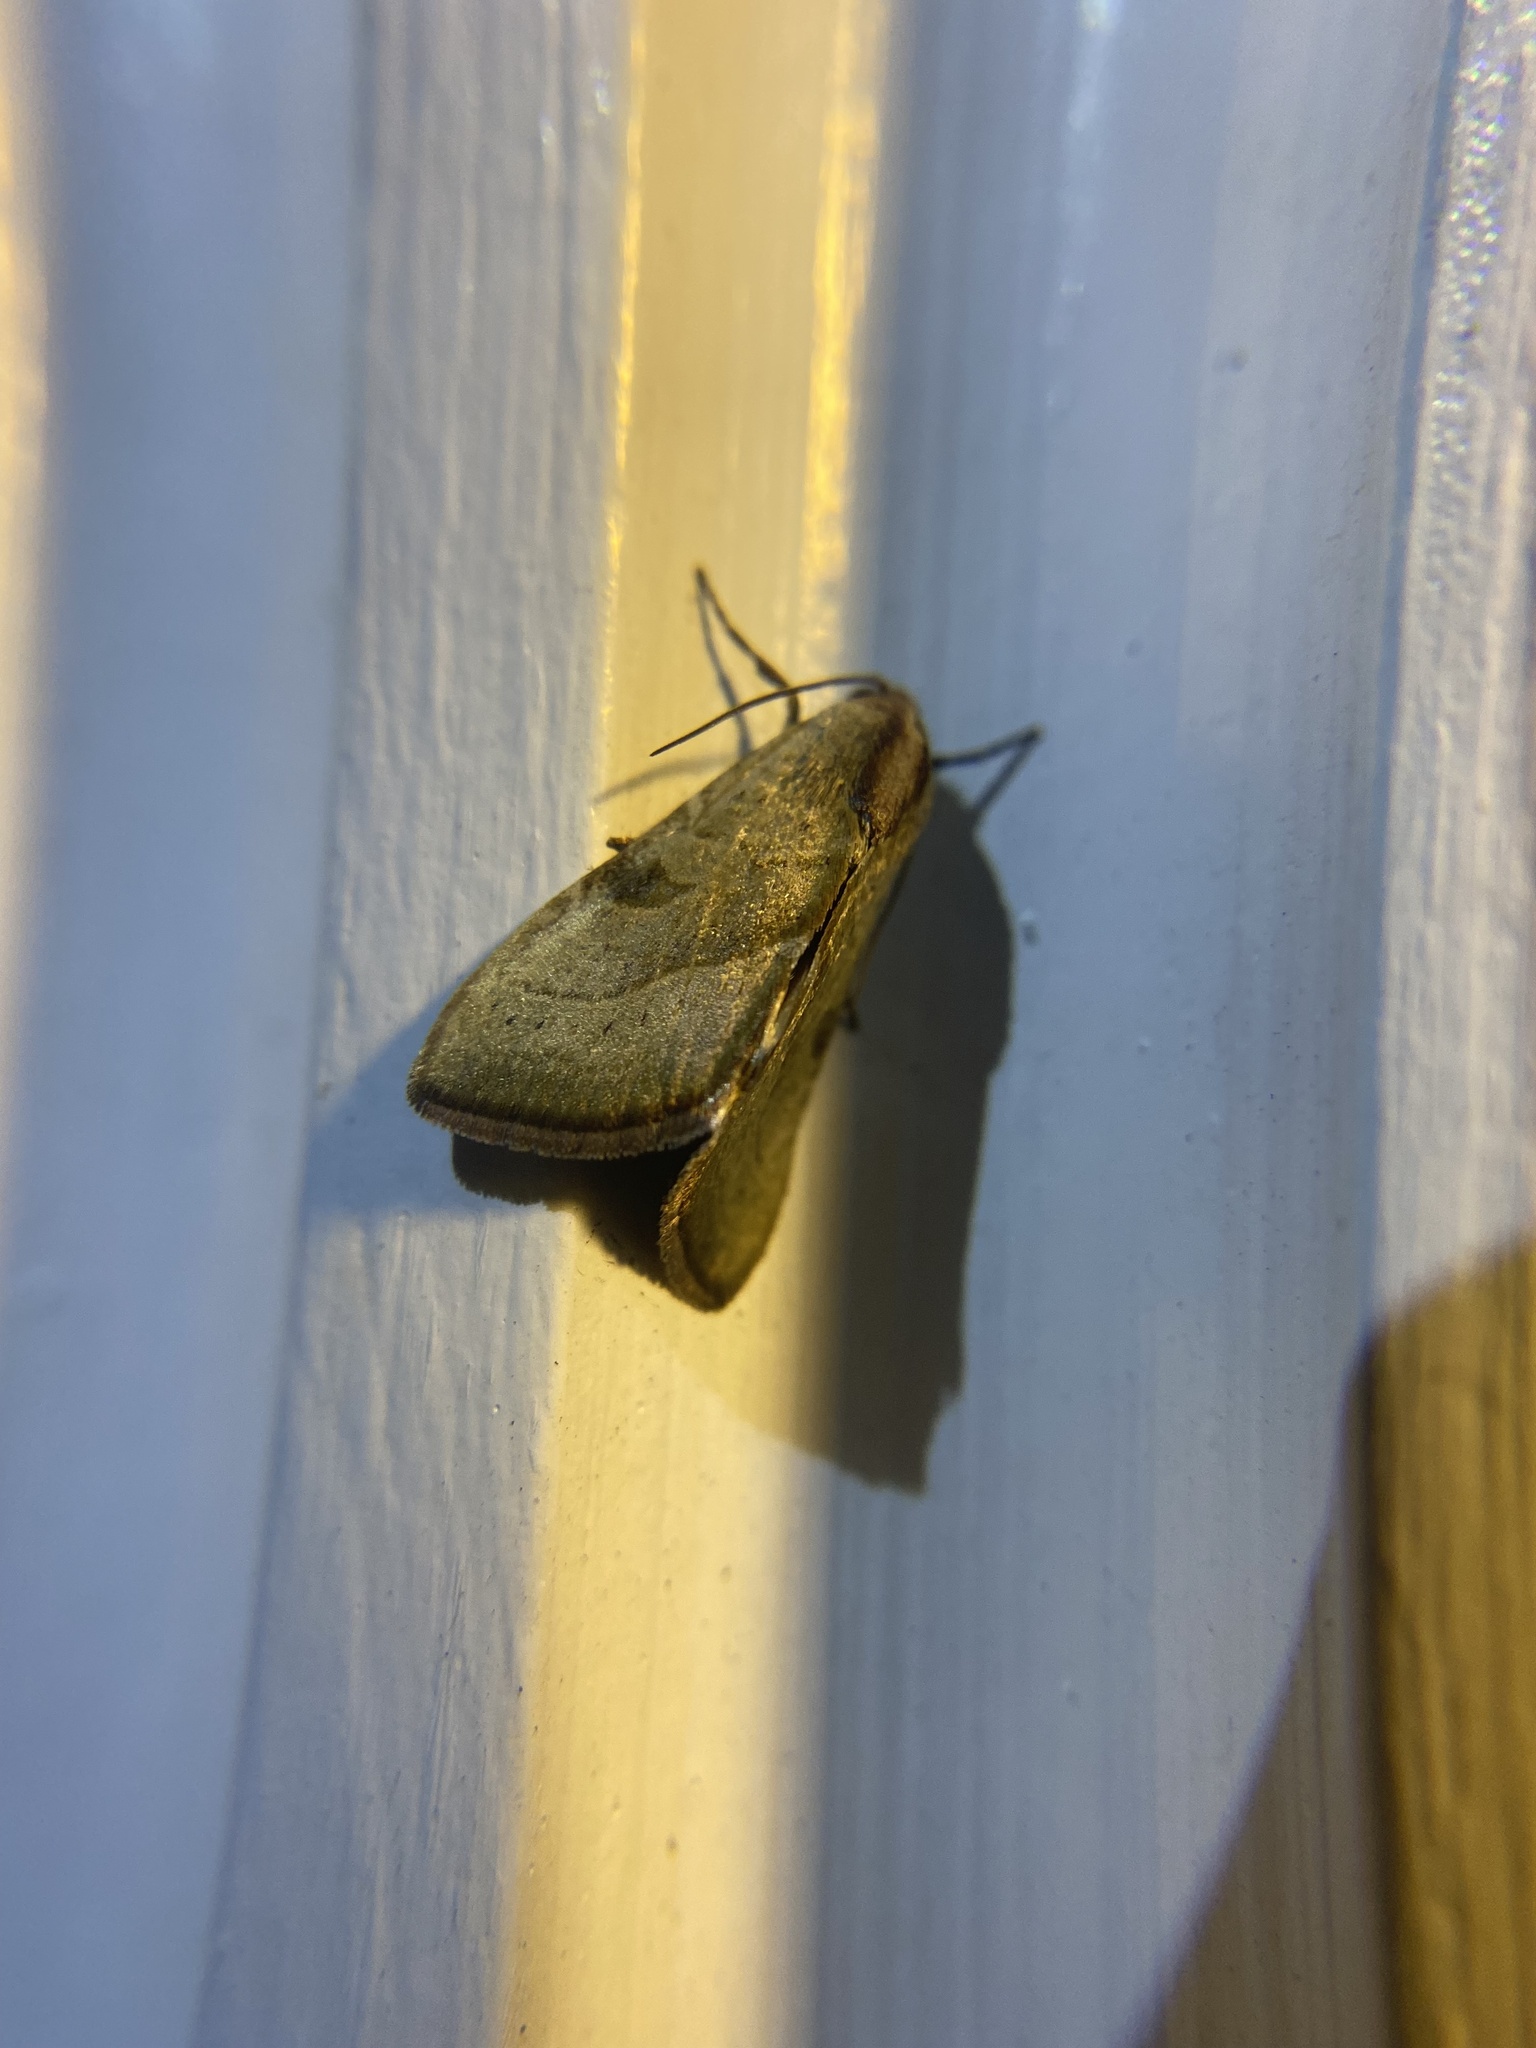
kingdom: Animalia
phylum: Arthropoda
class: Insecta
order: Lepidoptera
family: Noctuidae
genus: Galgula
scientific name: Galgula partita
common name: Wedgeling
